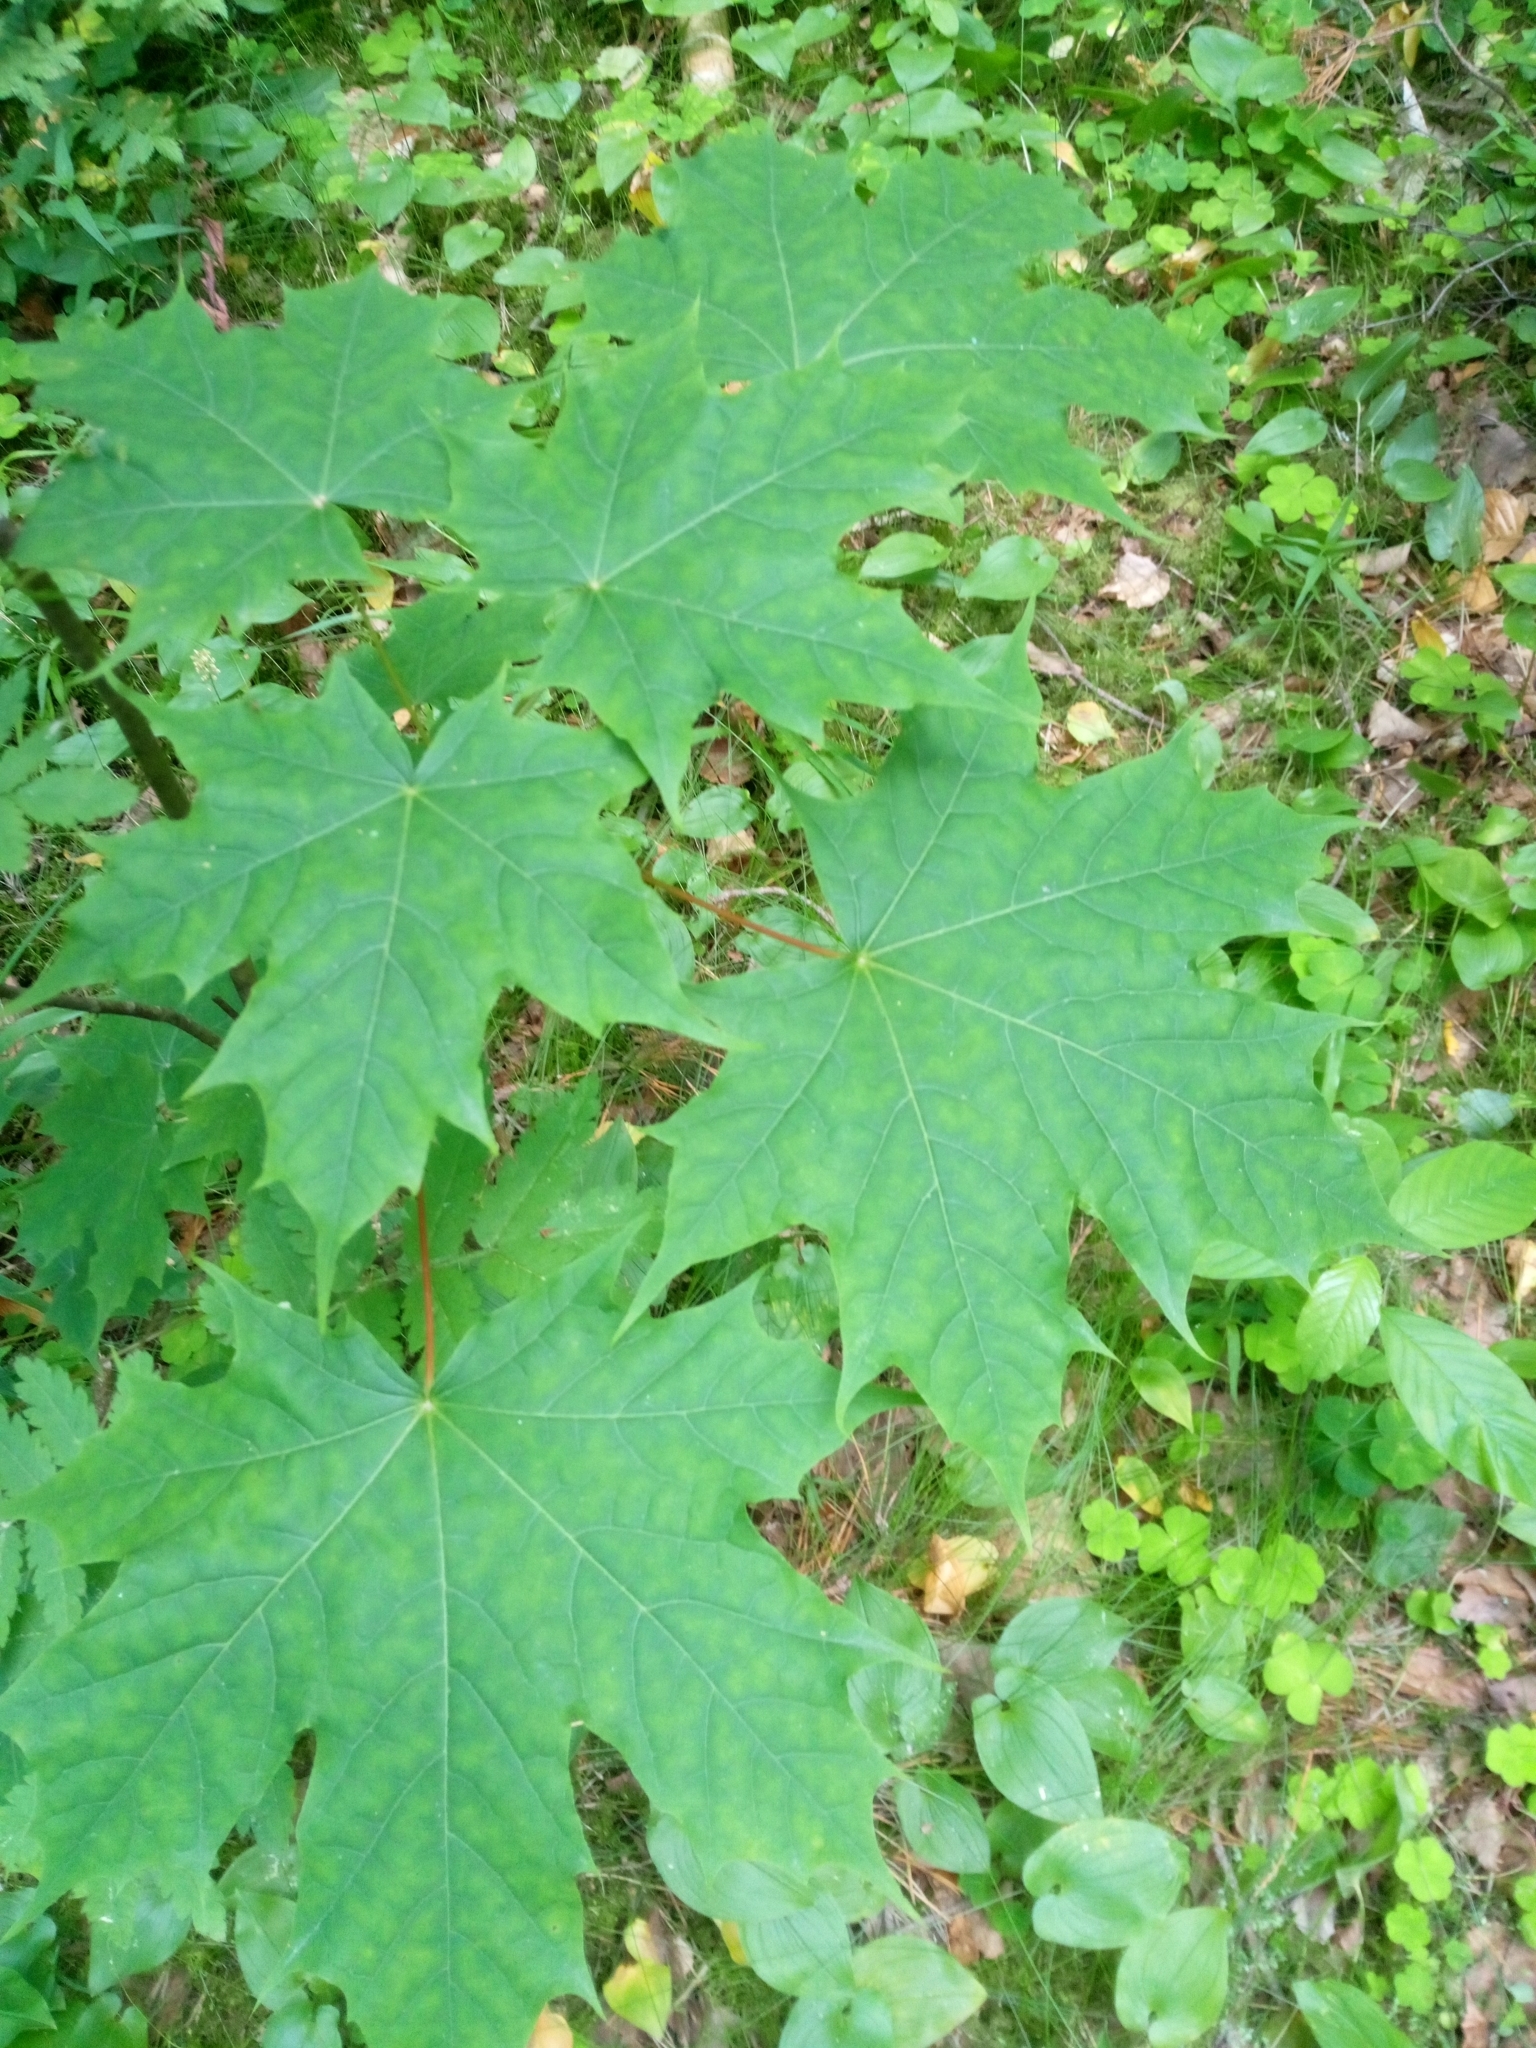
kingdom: Plantae
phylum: Tracheophyta
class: Magnoliopsida
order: Sapindales
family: Sapindaceae
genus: Acer
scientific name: Acer platanoides
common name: Norway maple
